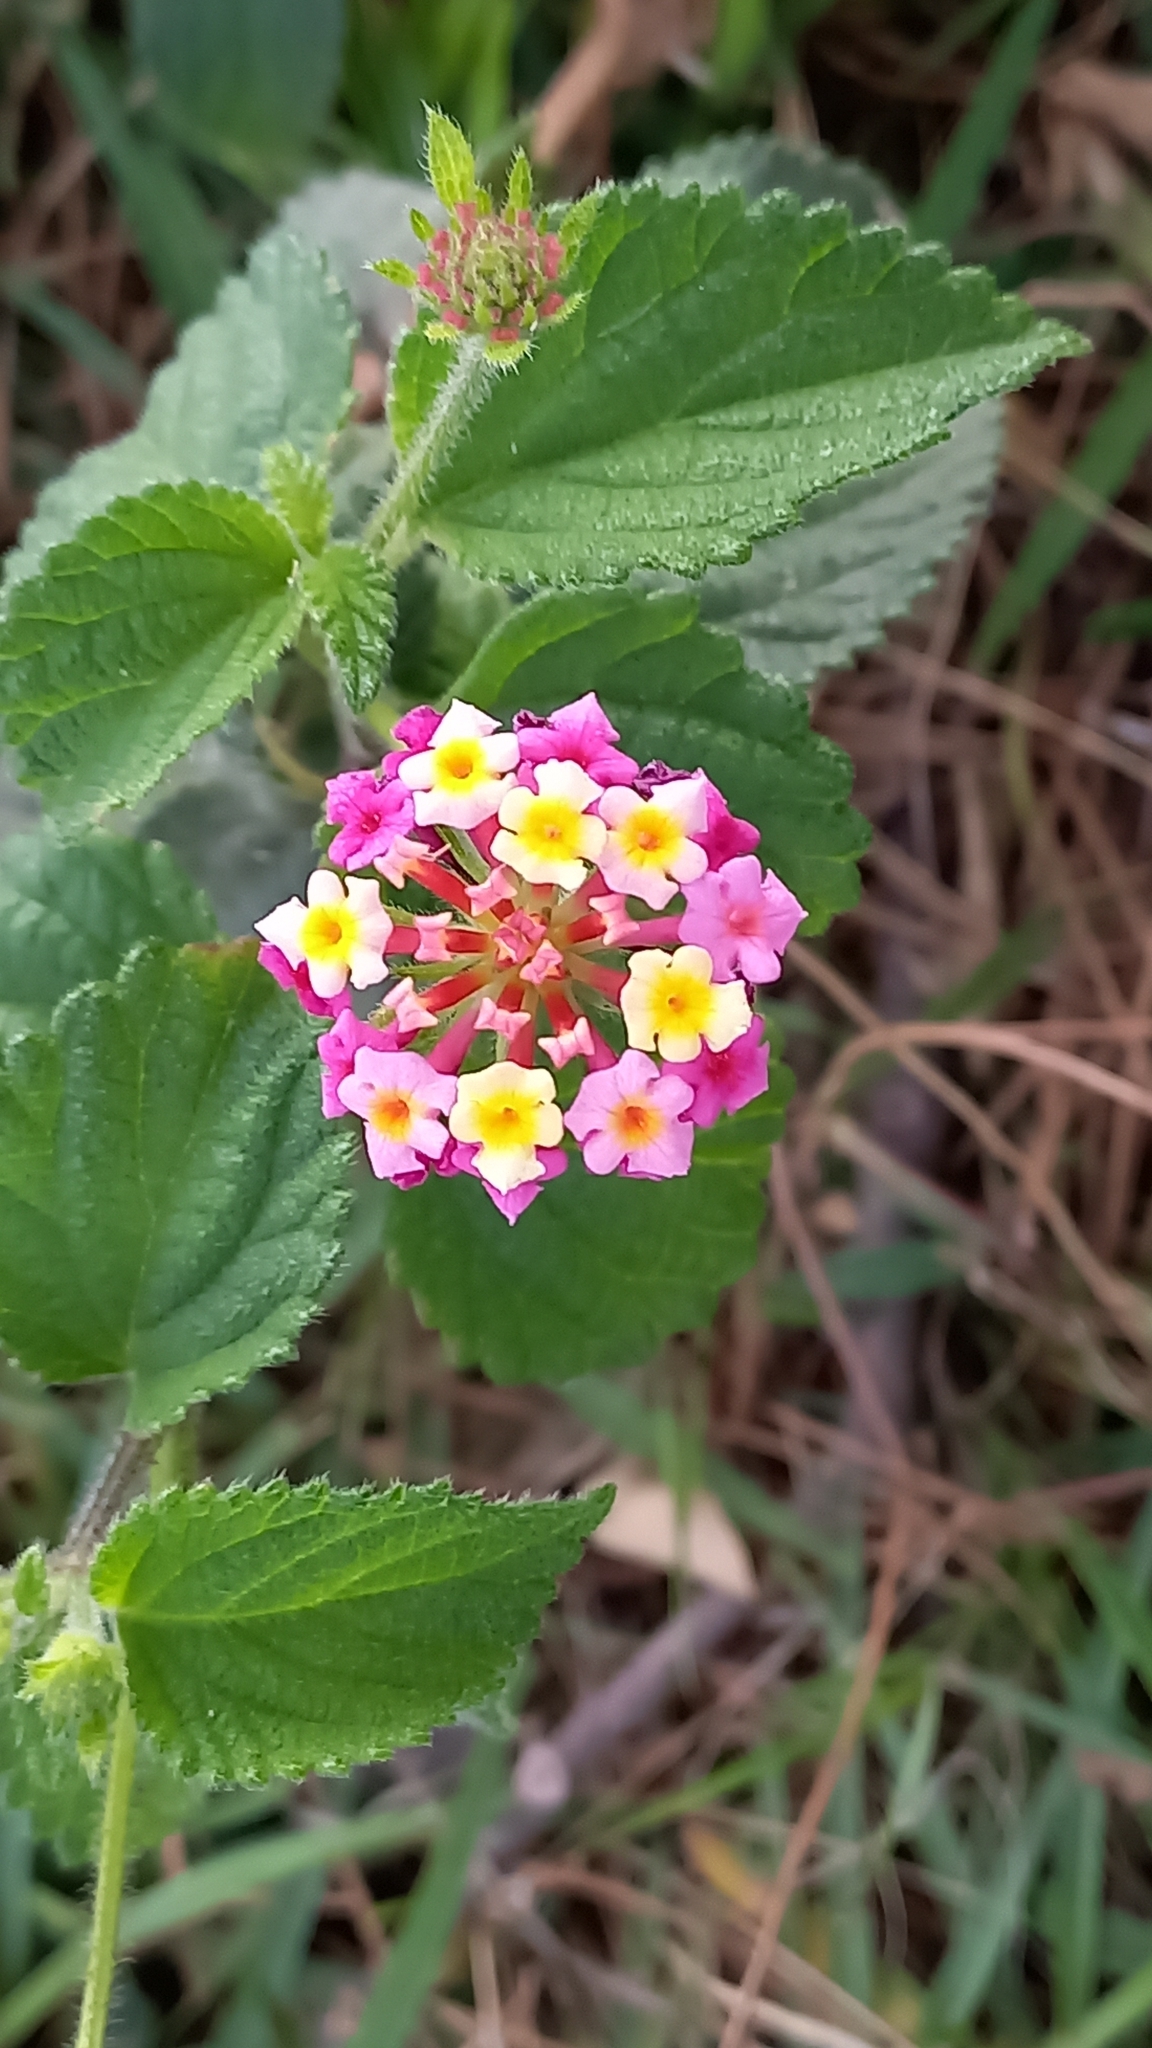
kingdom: Plantae
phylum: Tracheophyta
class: Magnoliopsida
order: Lamiales
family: Verbenaceae
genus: Lantana
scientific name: Lantana camara
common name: Lantana
